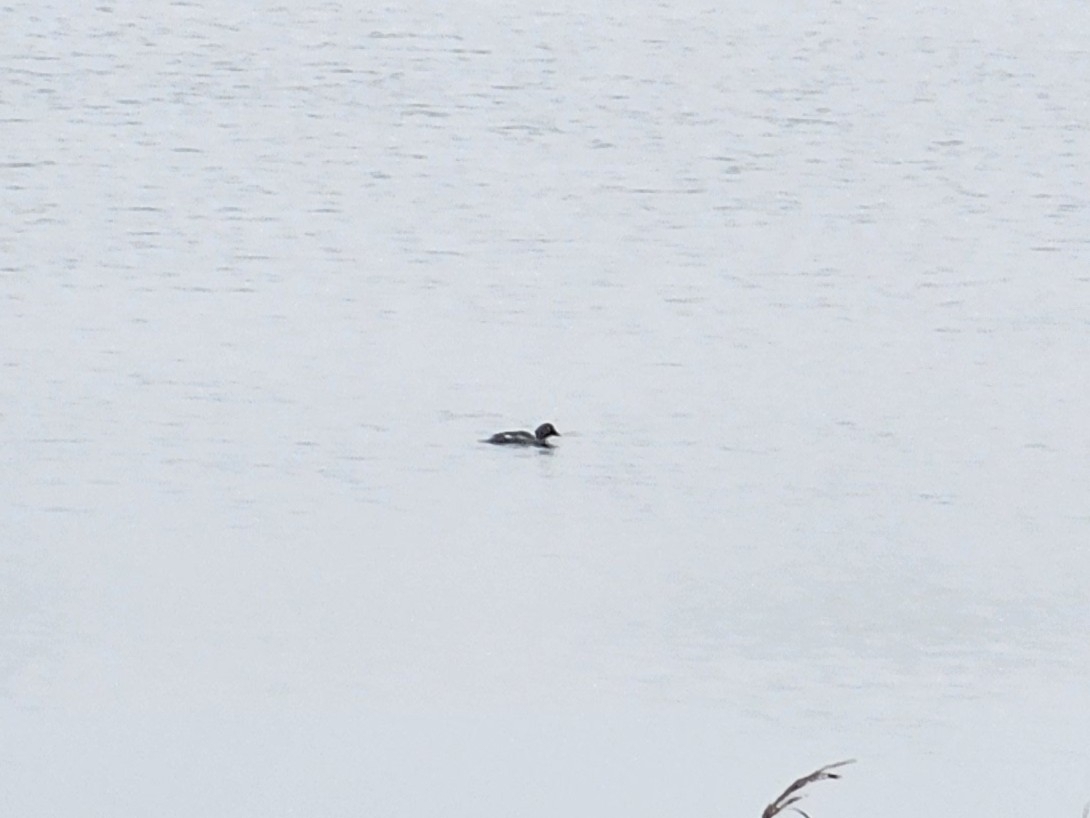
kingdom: Animalia
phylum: Chordata
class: Aves
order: Anseriformes
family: Anatidae
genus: Bucephala
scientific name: Bucephala clangula
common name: Common goldeneye
